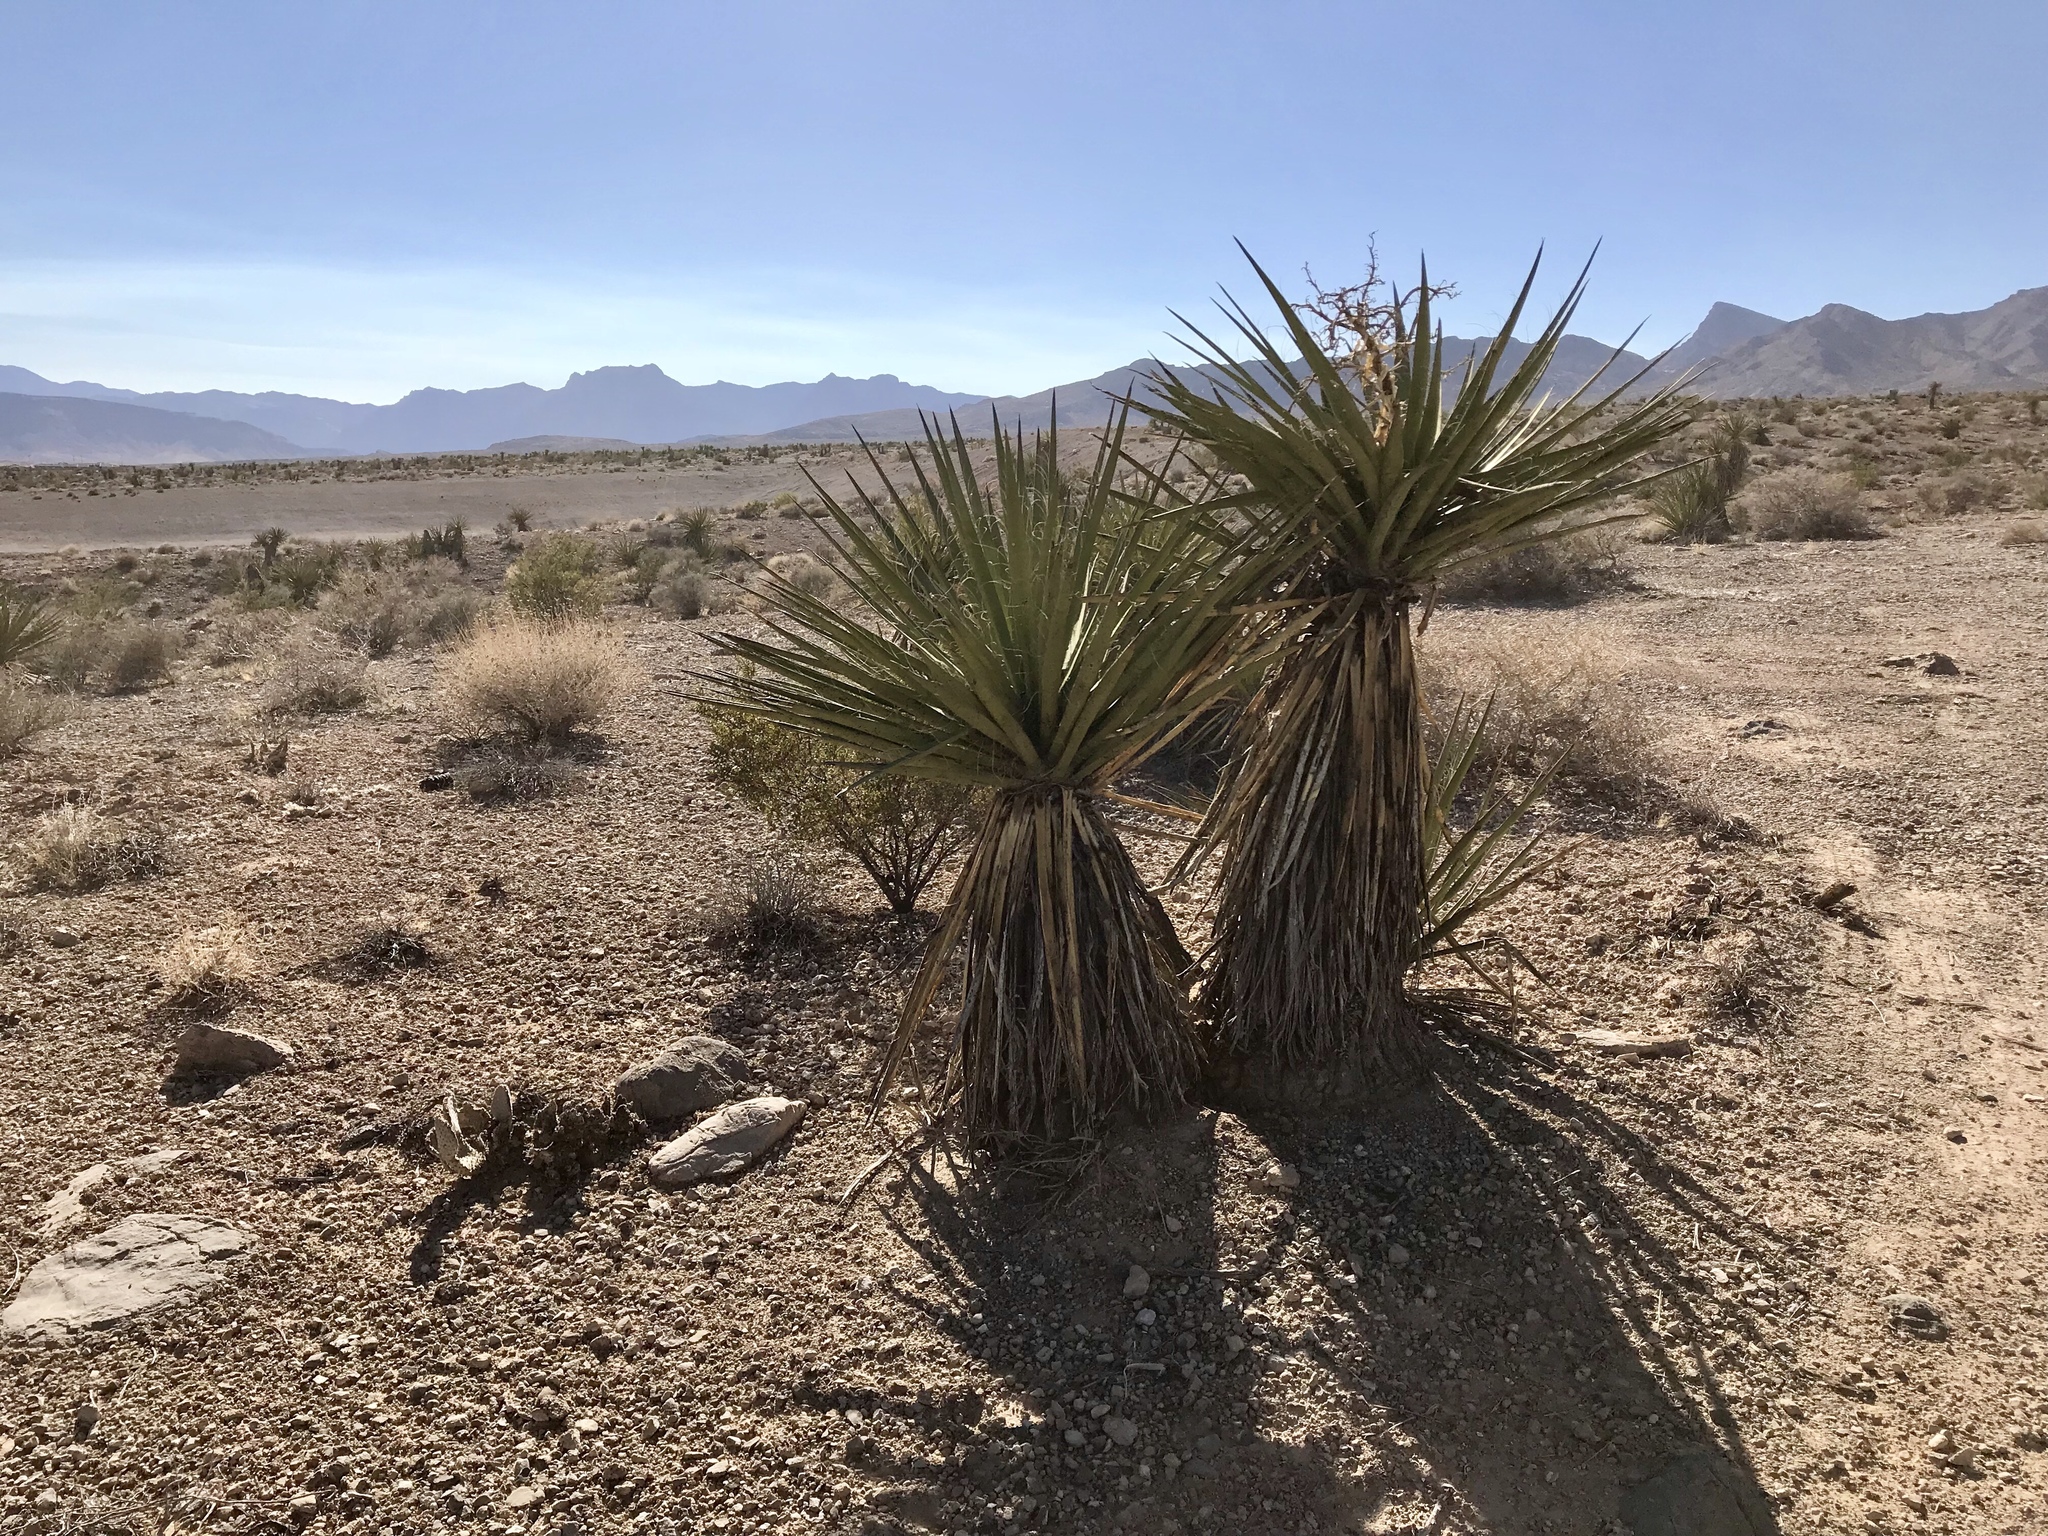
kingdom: Plantae
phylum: Tracheophyta
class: Liliopsida
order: Asparagales
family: Asparagaceae
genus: Yucca
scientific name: Yucca schidigera
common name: Mojave yucca
